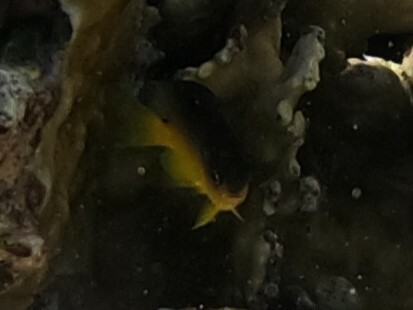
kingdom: Animalia
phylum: Chordata
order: Perciformes
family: Pomacentridae
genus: Stegastes
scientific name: Stegastes xanthurus
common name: Cocoa damselfish
